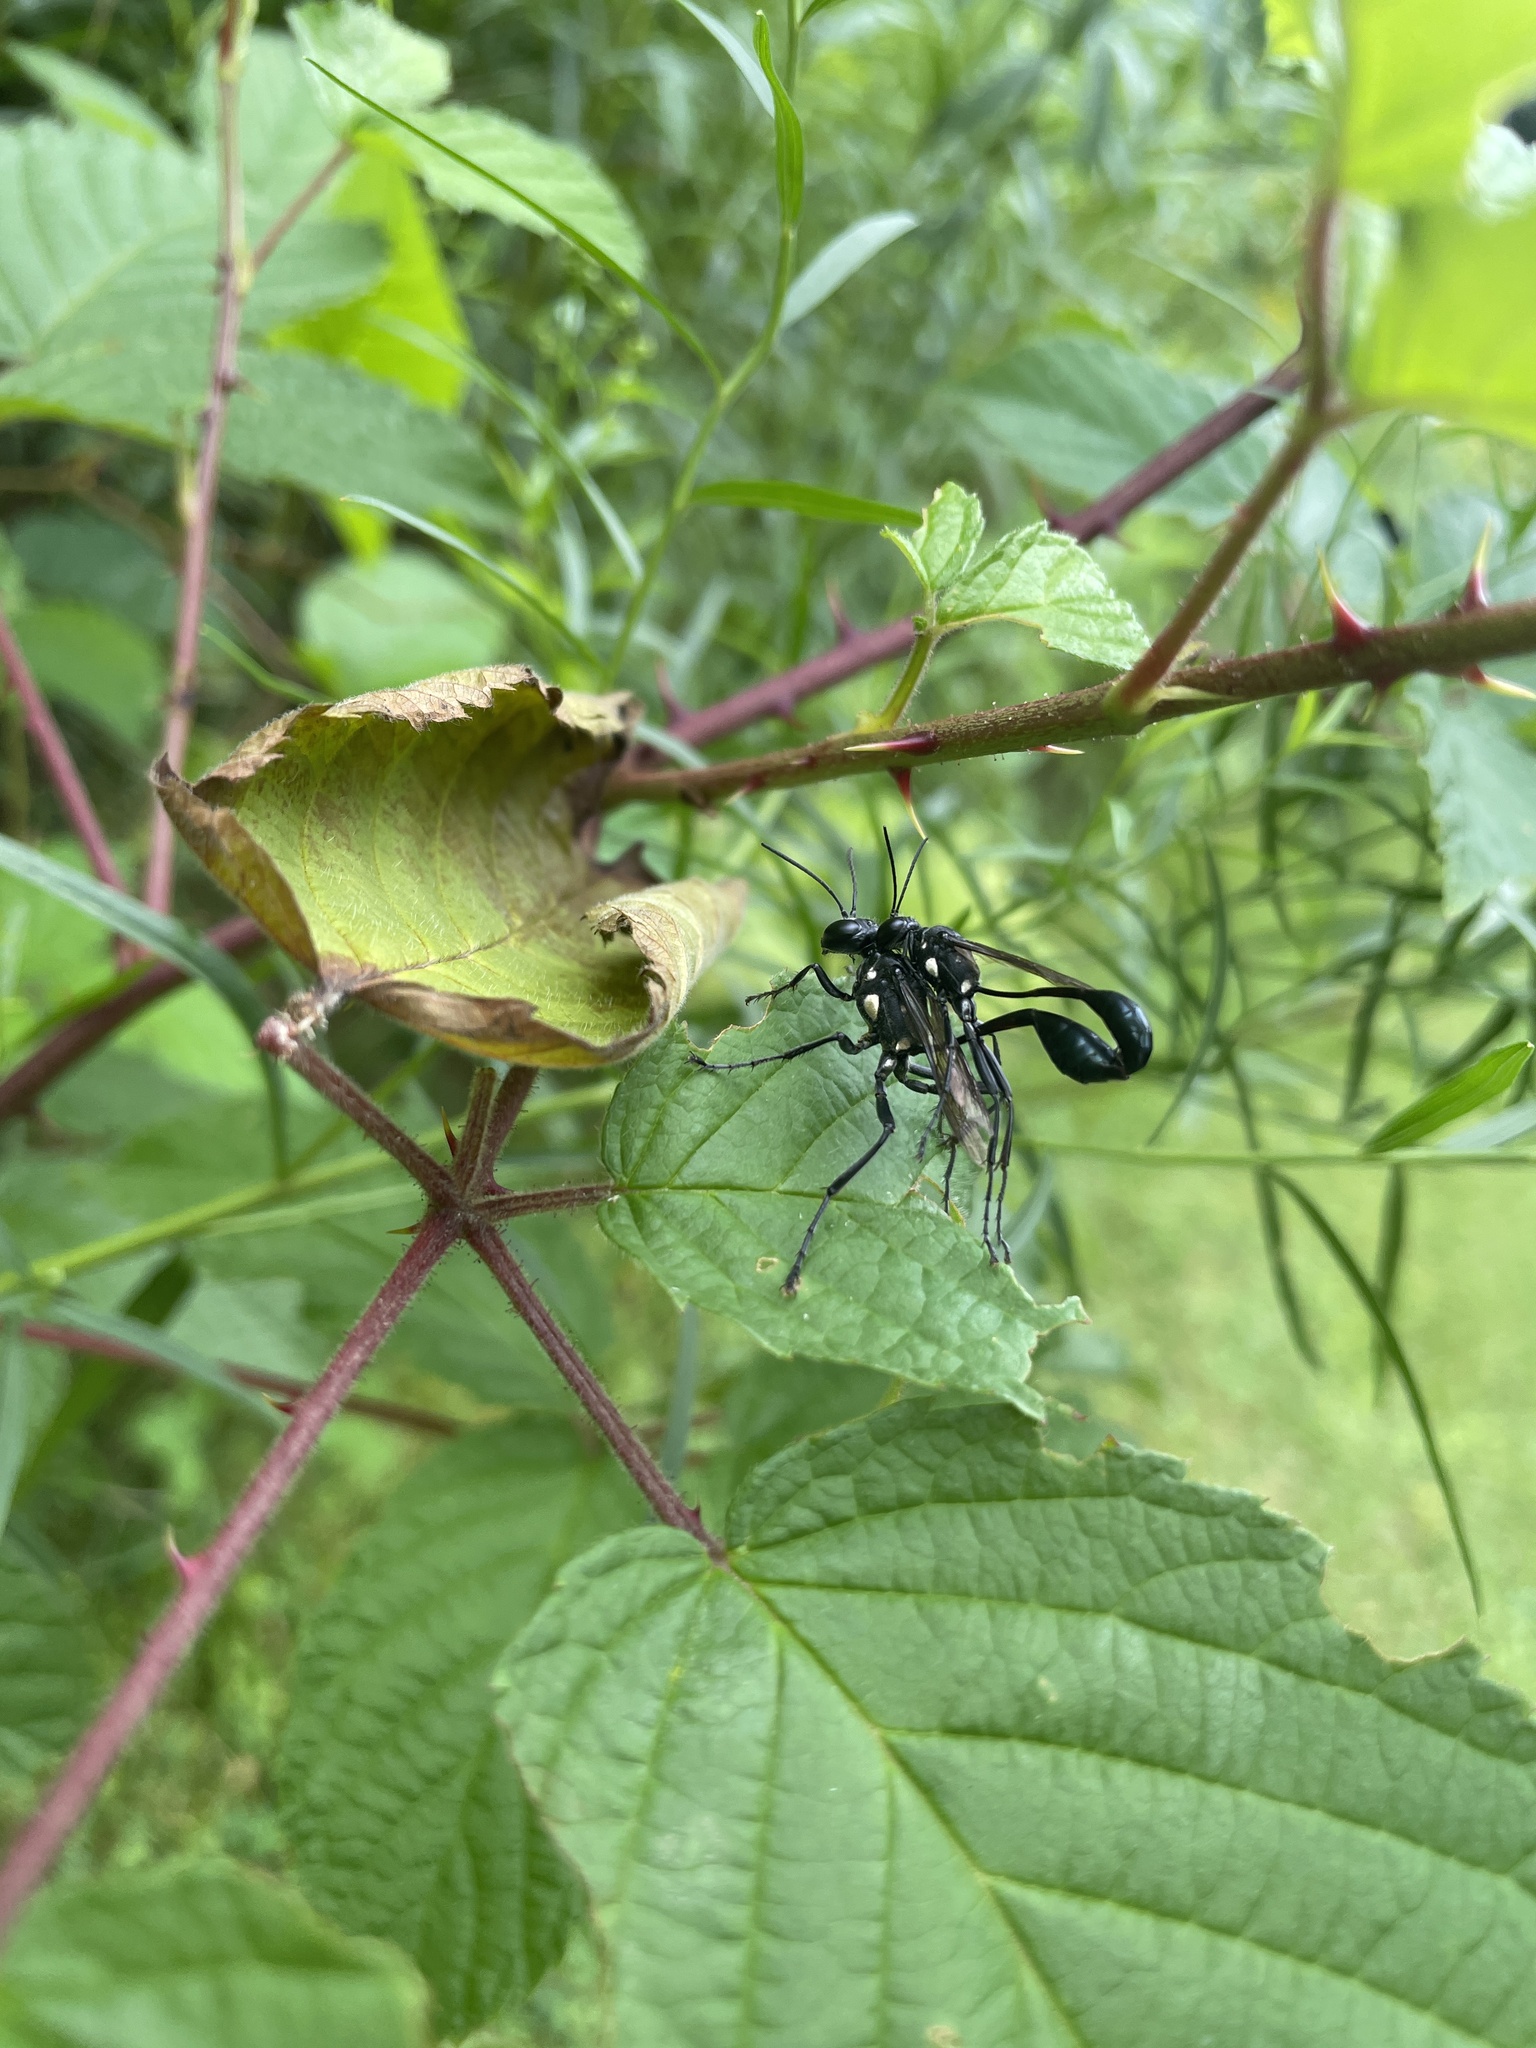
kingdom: Animalia
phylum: Arthropoda
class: Insecta
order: Hymenoptera
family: Sphecidae
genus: Eremnophila
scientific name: Eremnophila aureonotata
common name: Gold-marked thread-waisted wasp
